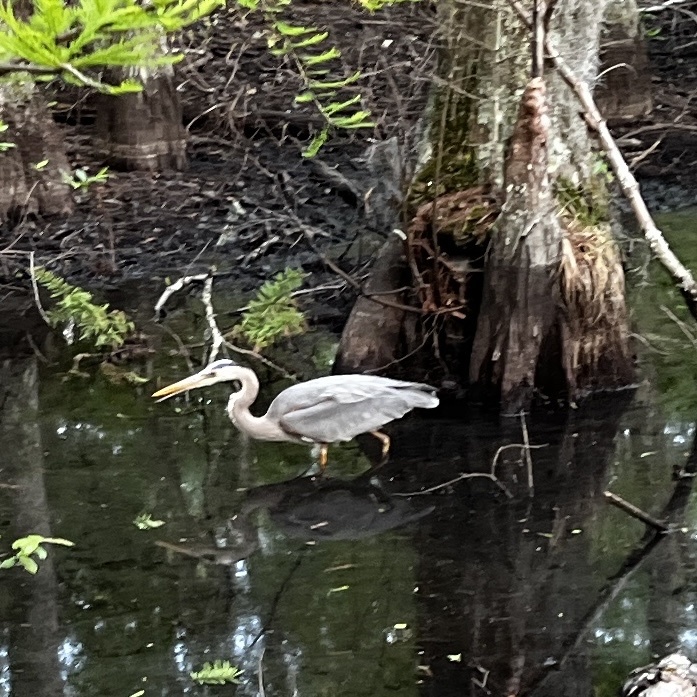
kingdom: Animalia
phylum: Chordata
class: Aves
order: Pelecaniformes
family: Ardeidae
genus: Ardea
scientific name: Ardea herodias
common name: Great blue heron
